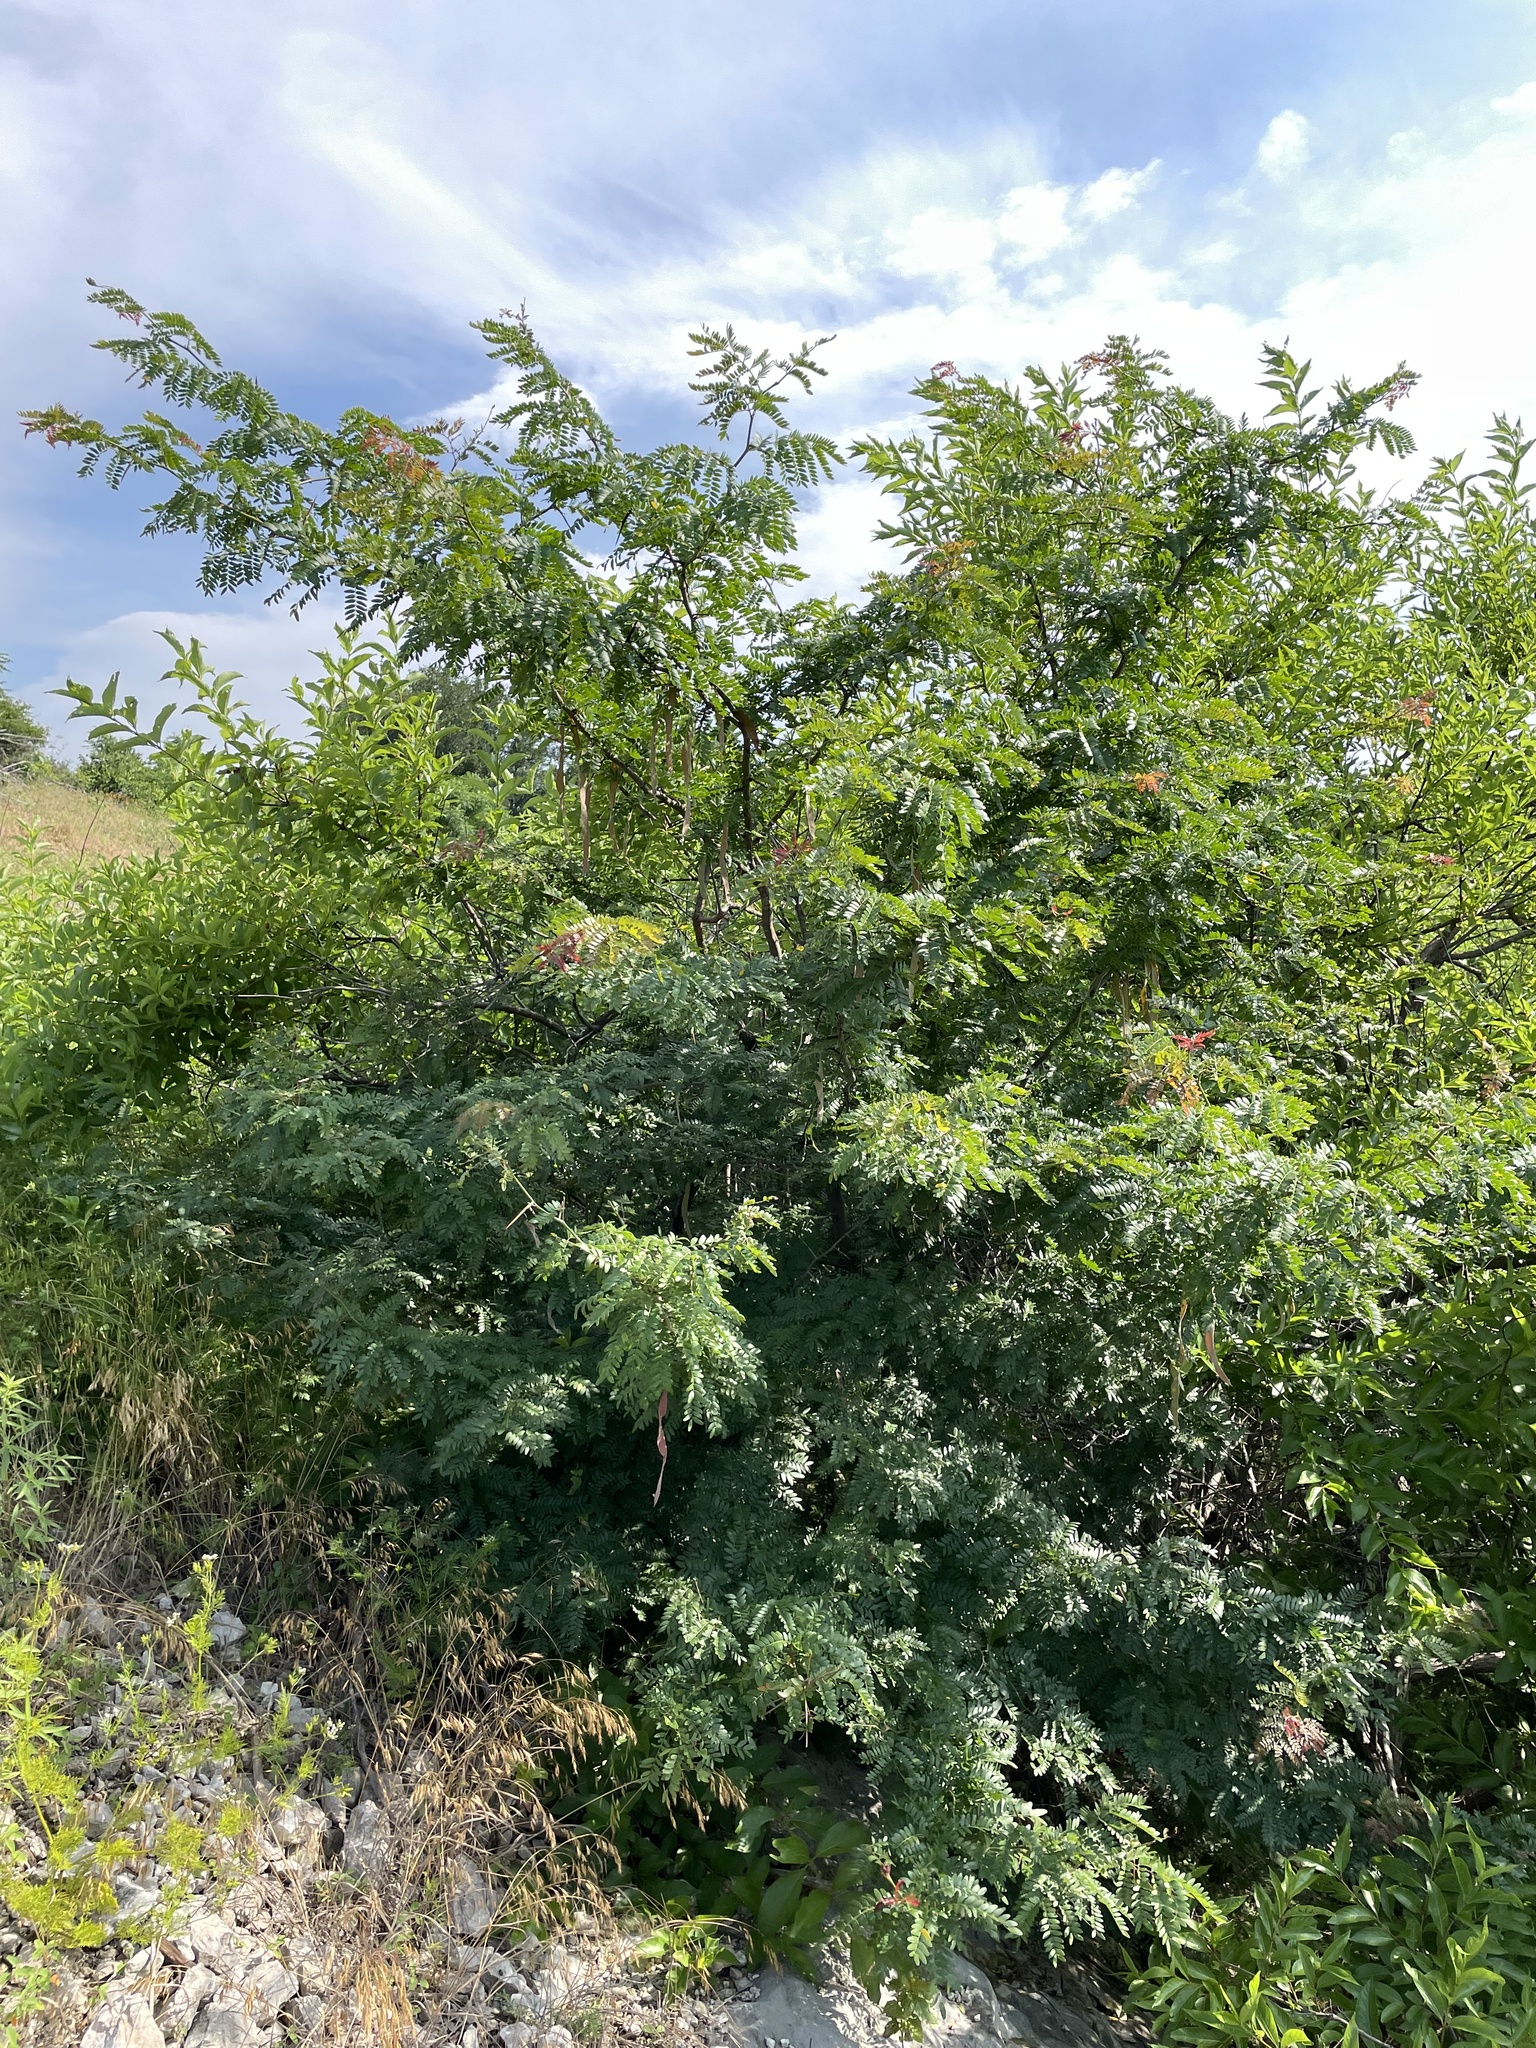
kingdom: Plantae
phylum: Tracheophyta
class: Magnoliopsida
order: Fabales
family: Fabaceae
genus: Gleditsia
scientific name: Gleditsia triacanthos
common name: Common honeylocust
